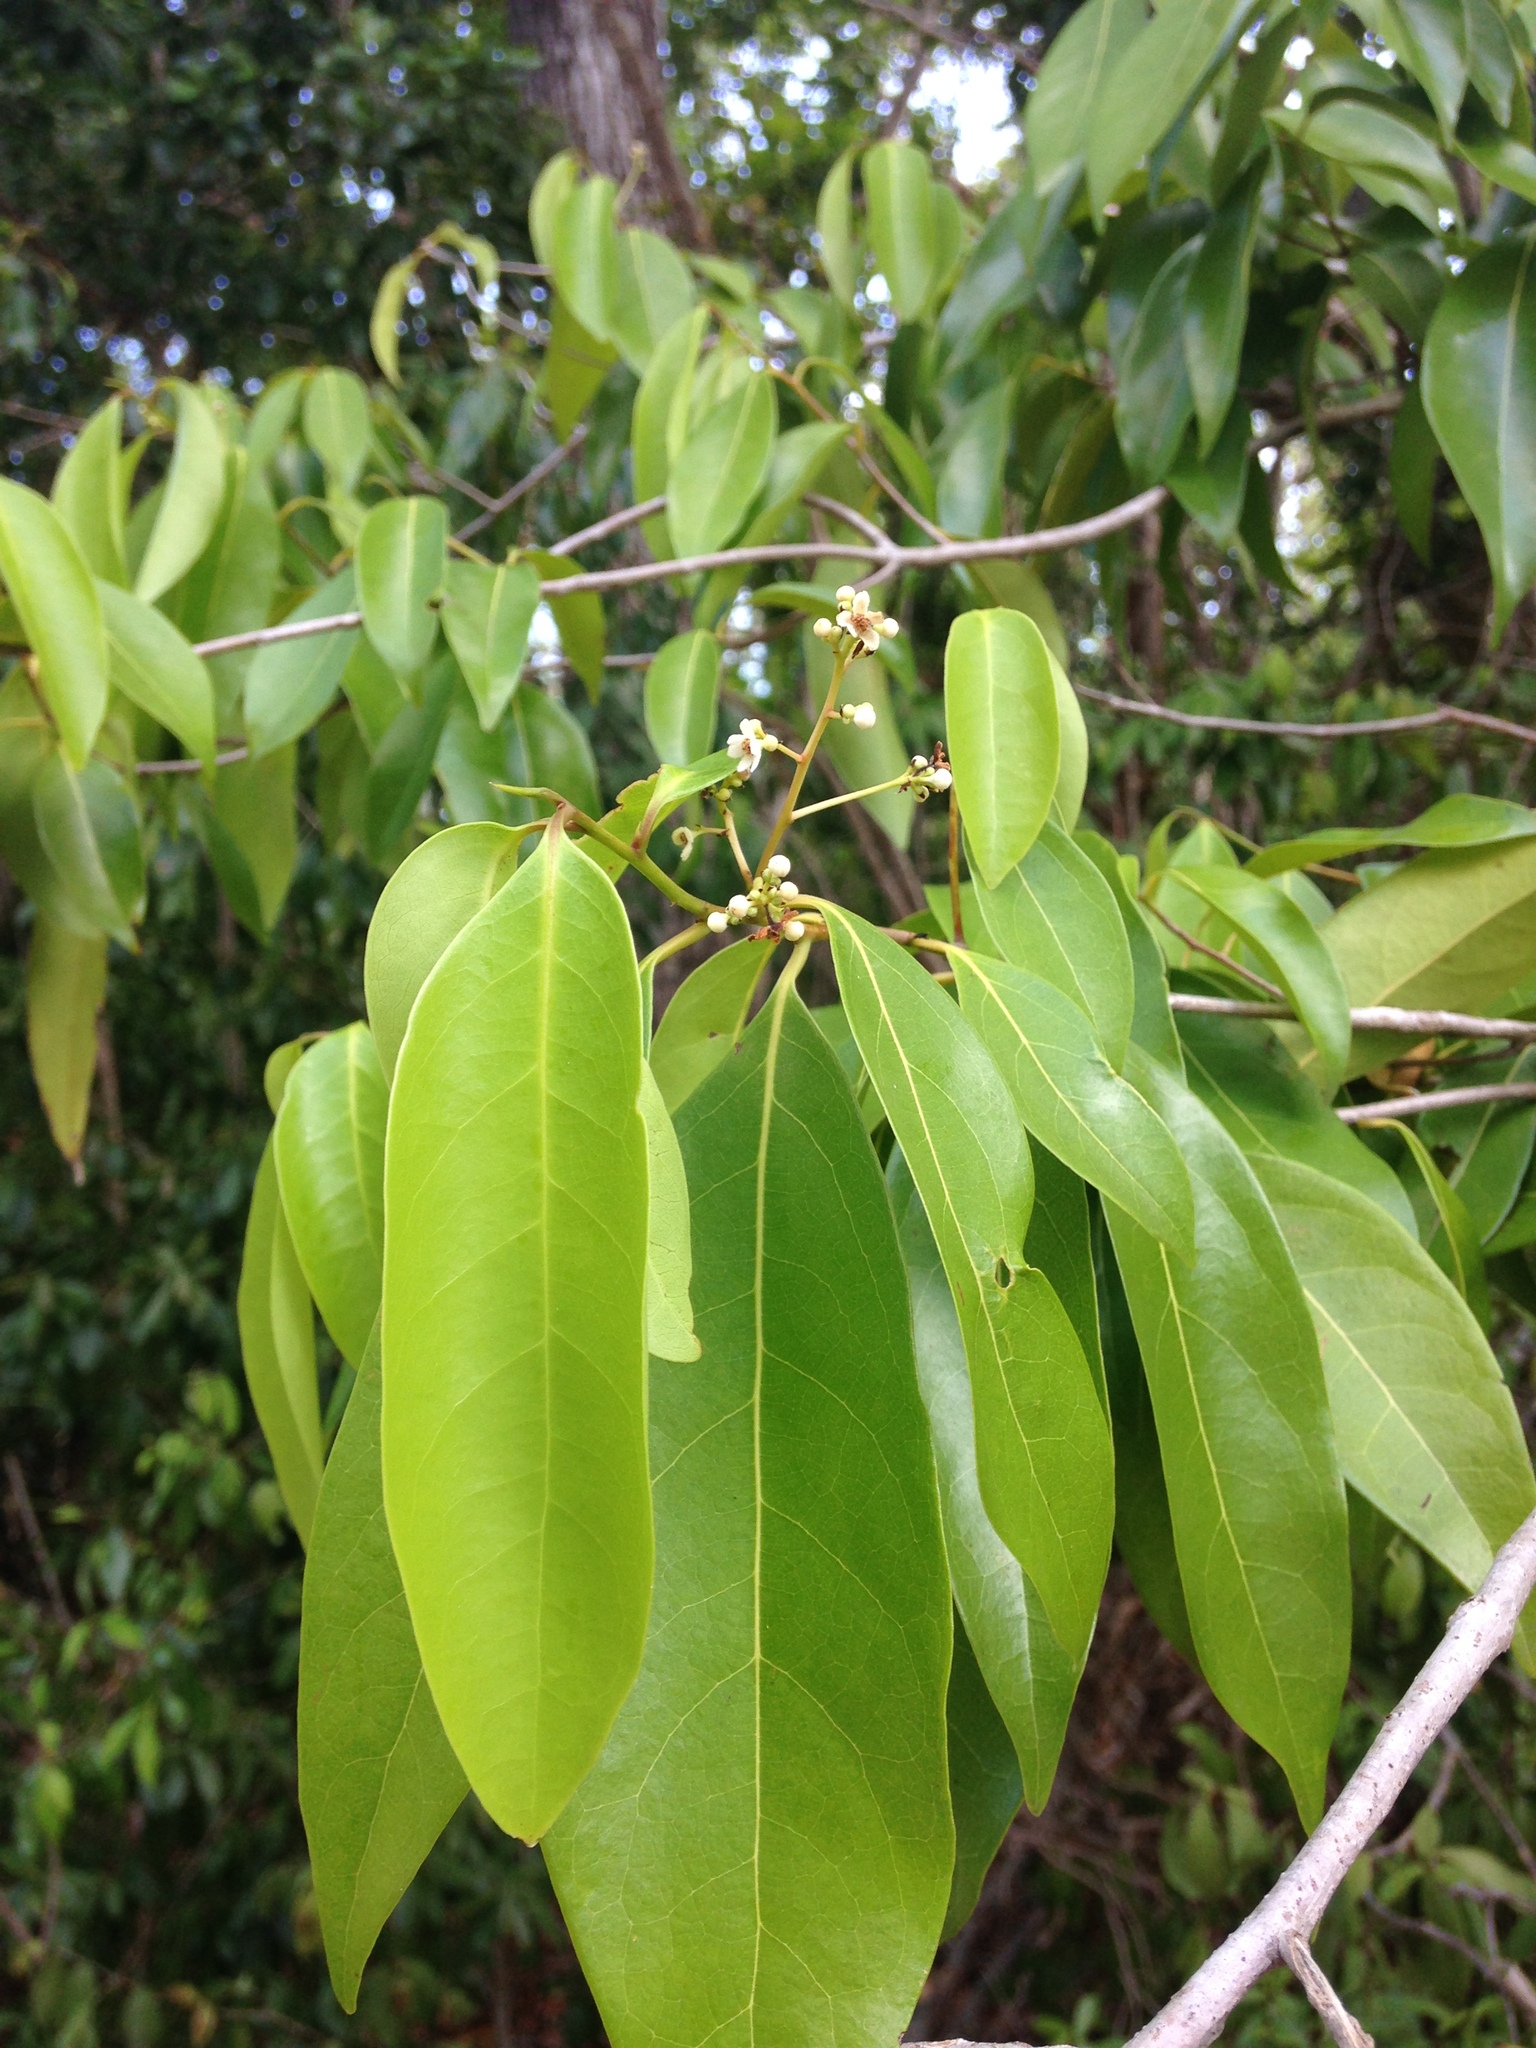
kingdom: Plantae
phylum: Tracheophyta
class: Magnoliopsida
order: Laurales
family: Lauraceae
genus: Damburneya
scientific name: Damburneya
